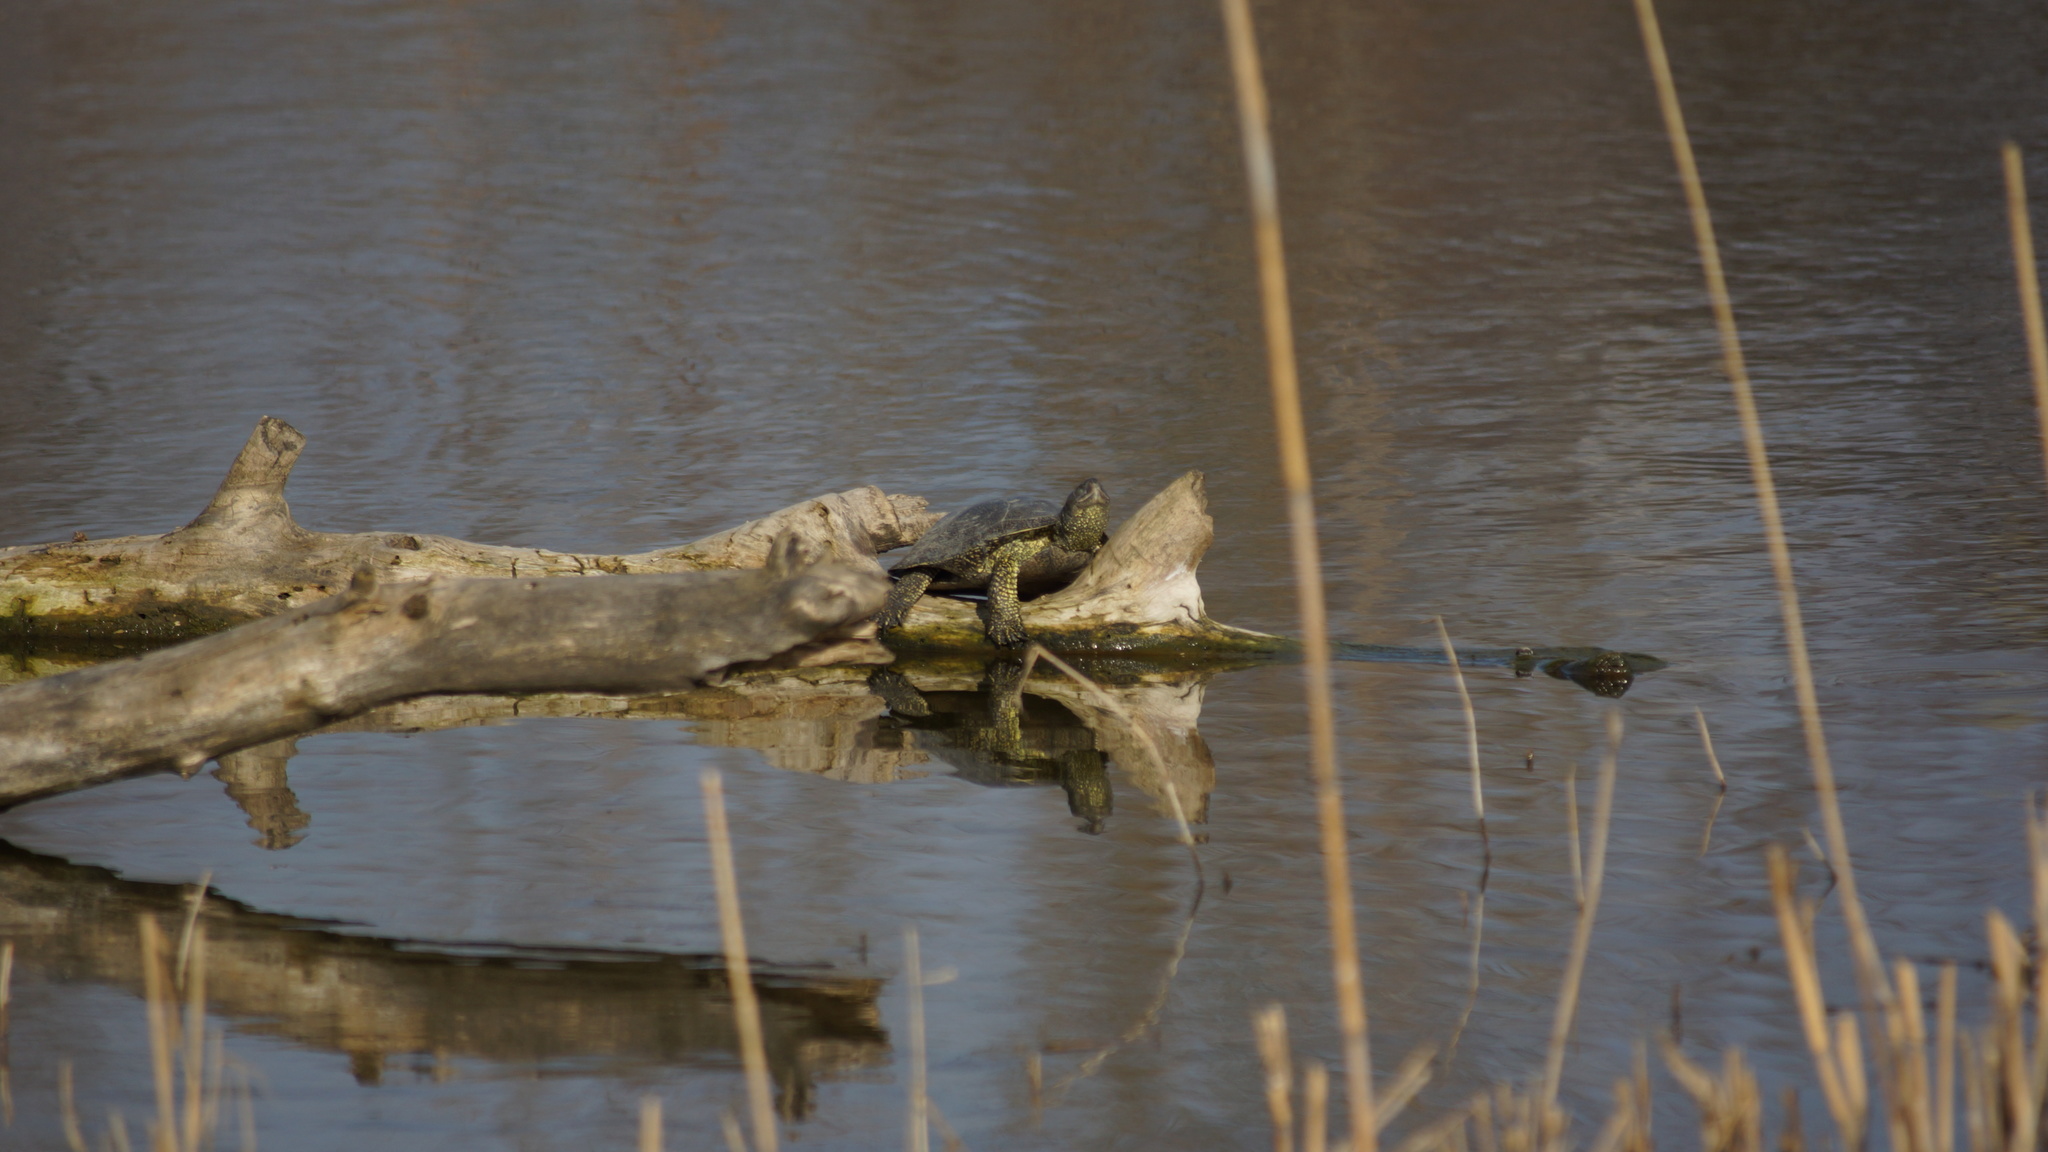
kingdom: Animalia
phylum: Chordata
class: Testudines
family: Emydidae
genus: Emys
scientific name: Emys orbicularis
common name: European pond turtle
